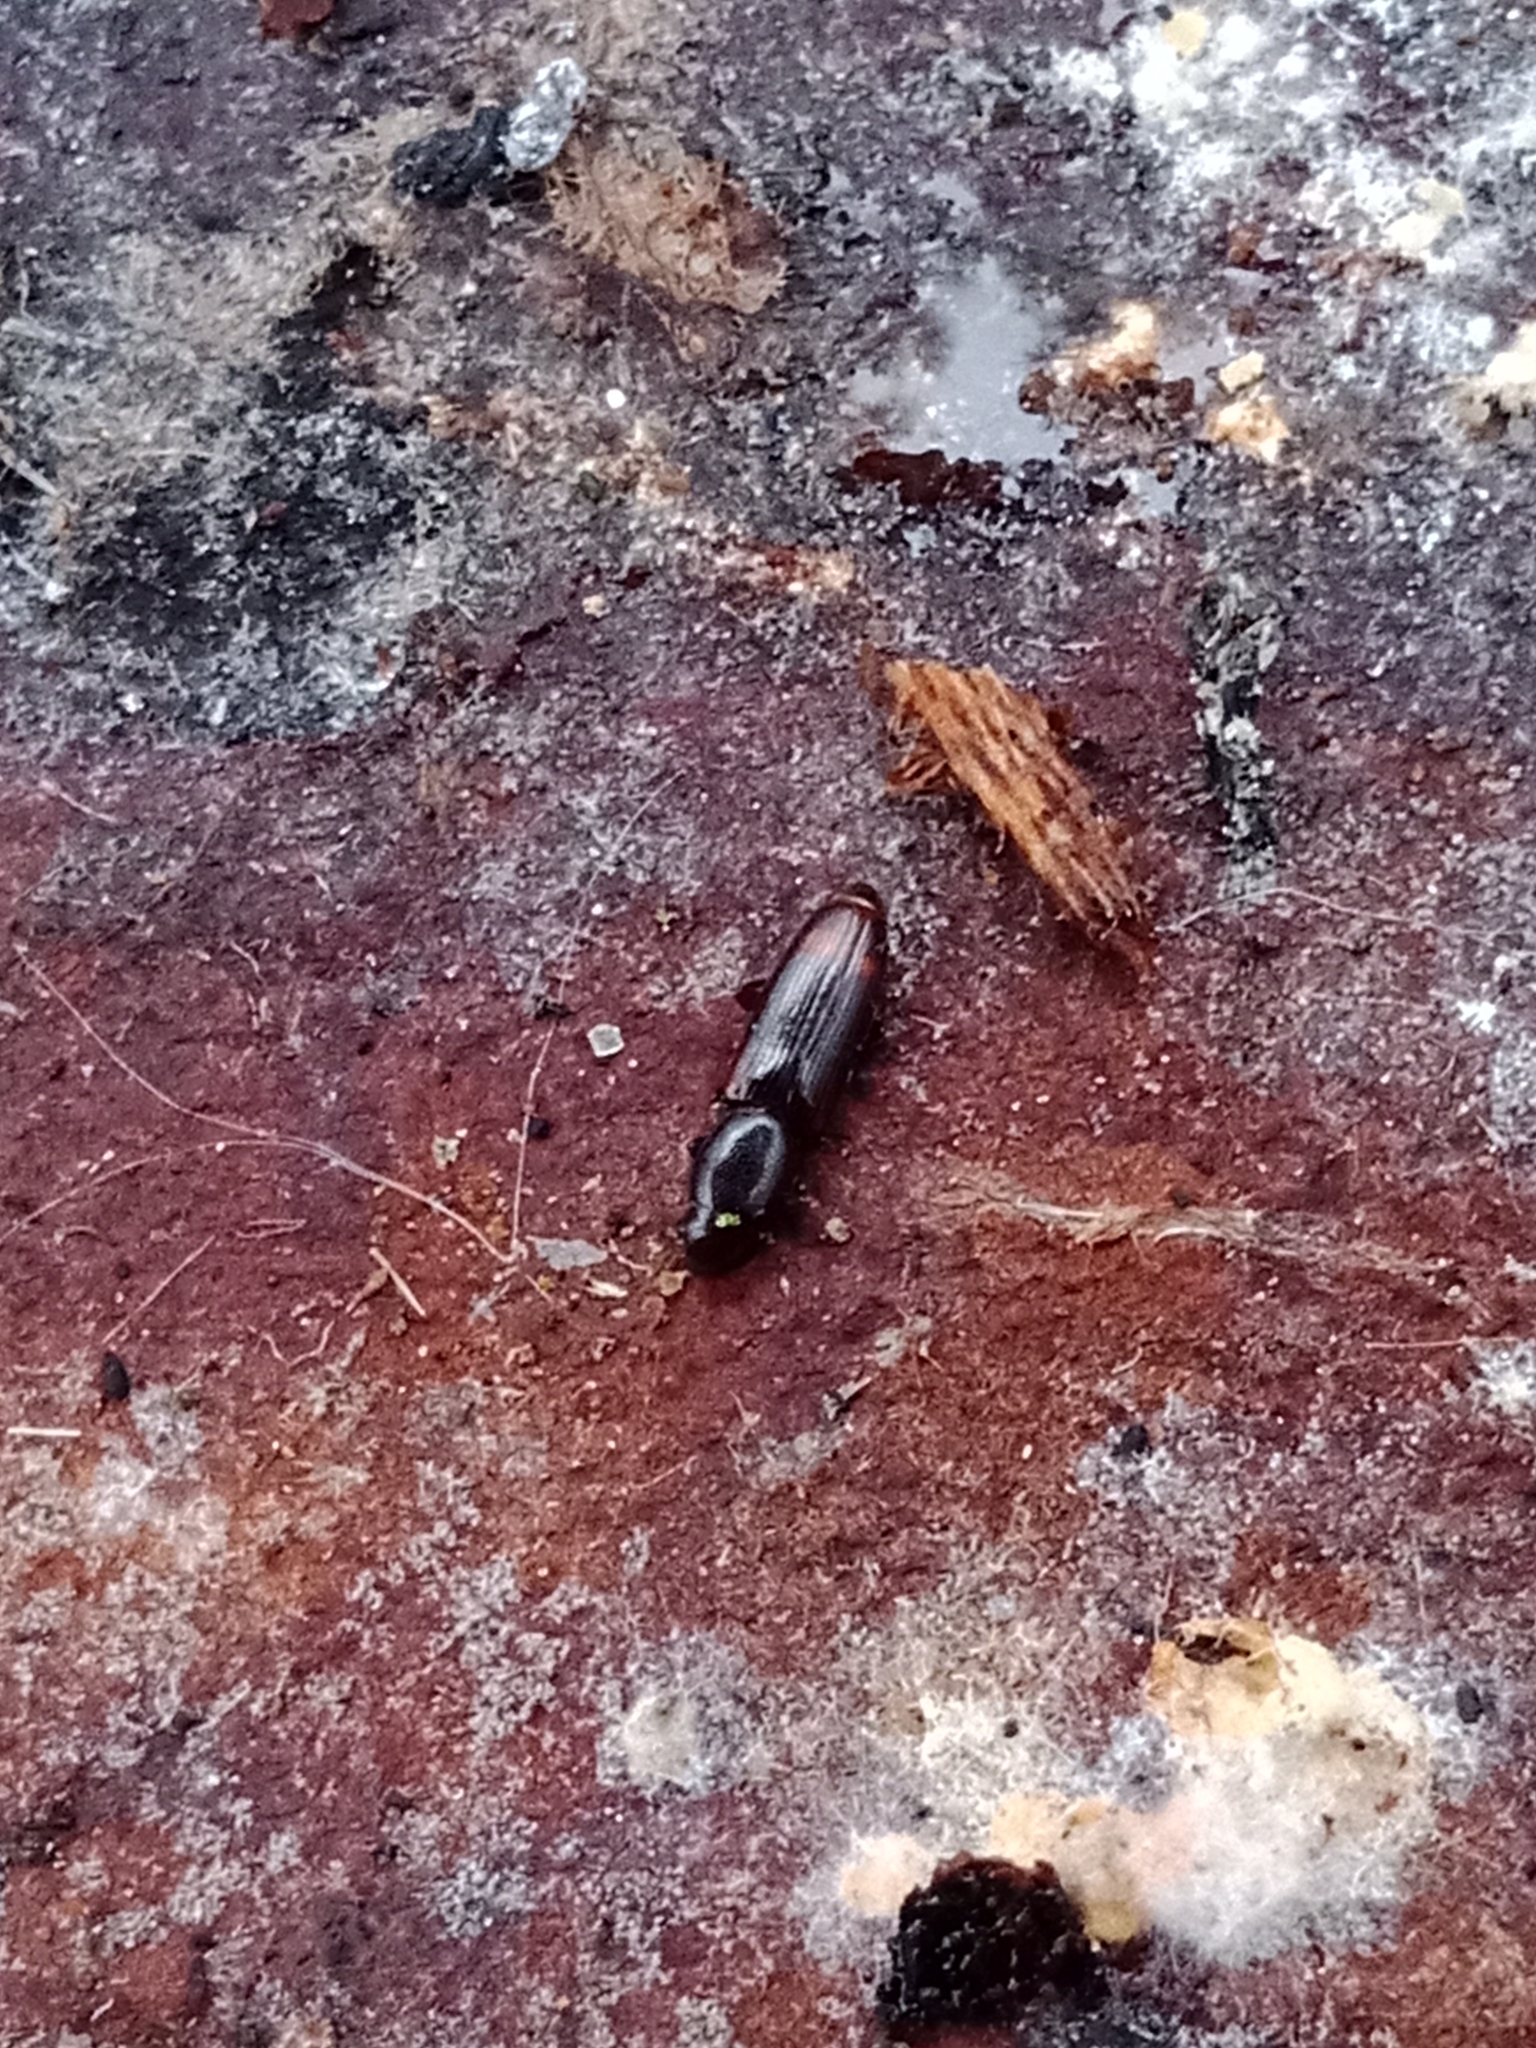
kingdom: Animalia
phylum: Arthropoda
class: Insecta
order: Coleoptera
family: Monotomidae
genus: Rhizophagus
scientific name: Rhizophagus bipustulatus
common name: Root-eating beetle
